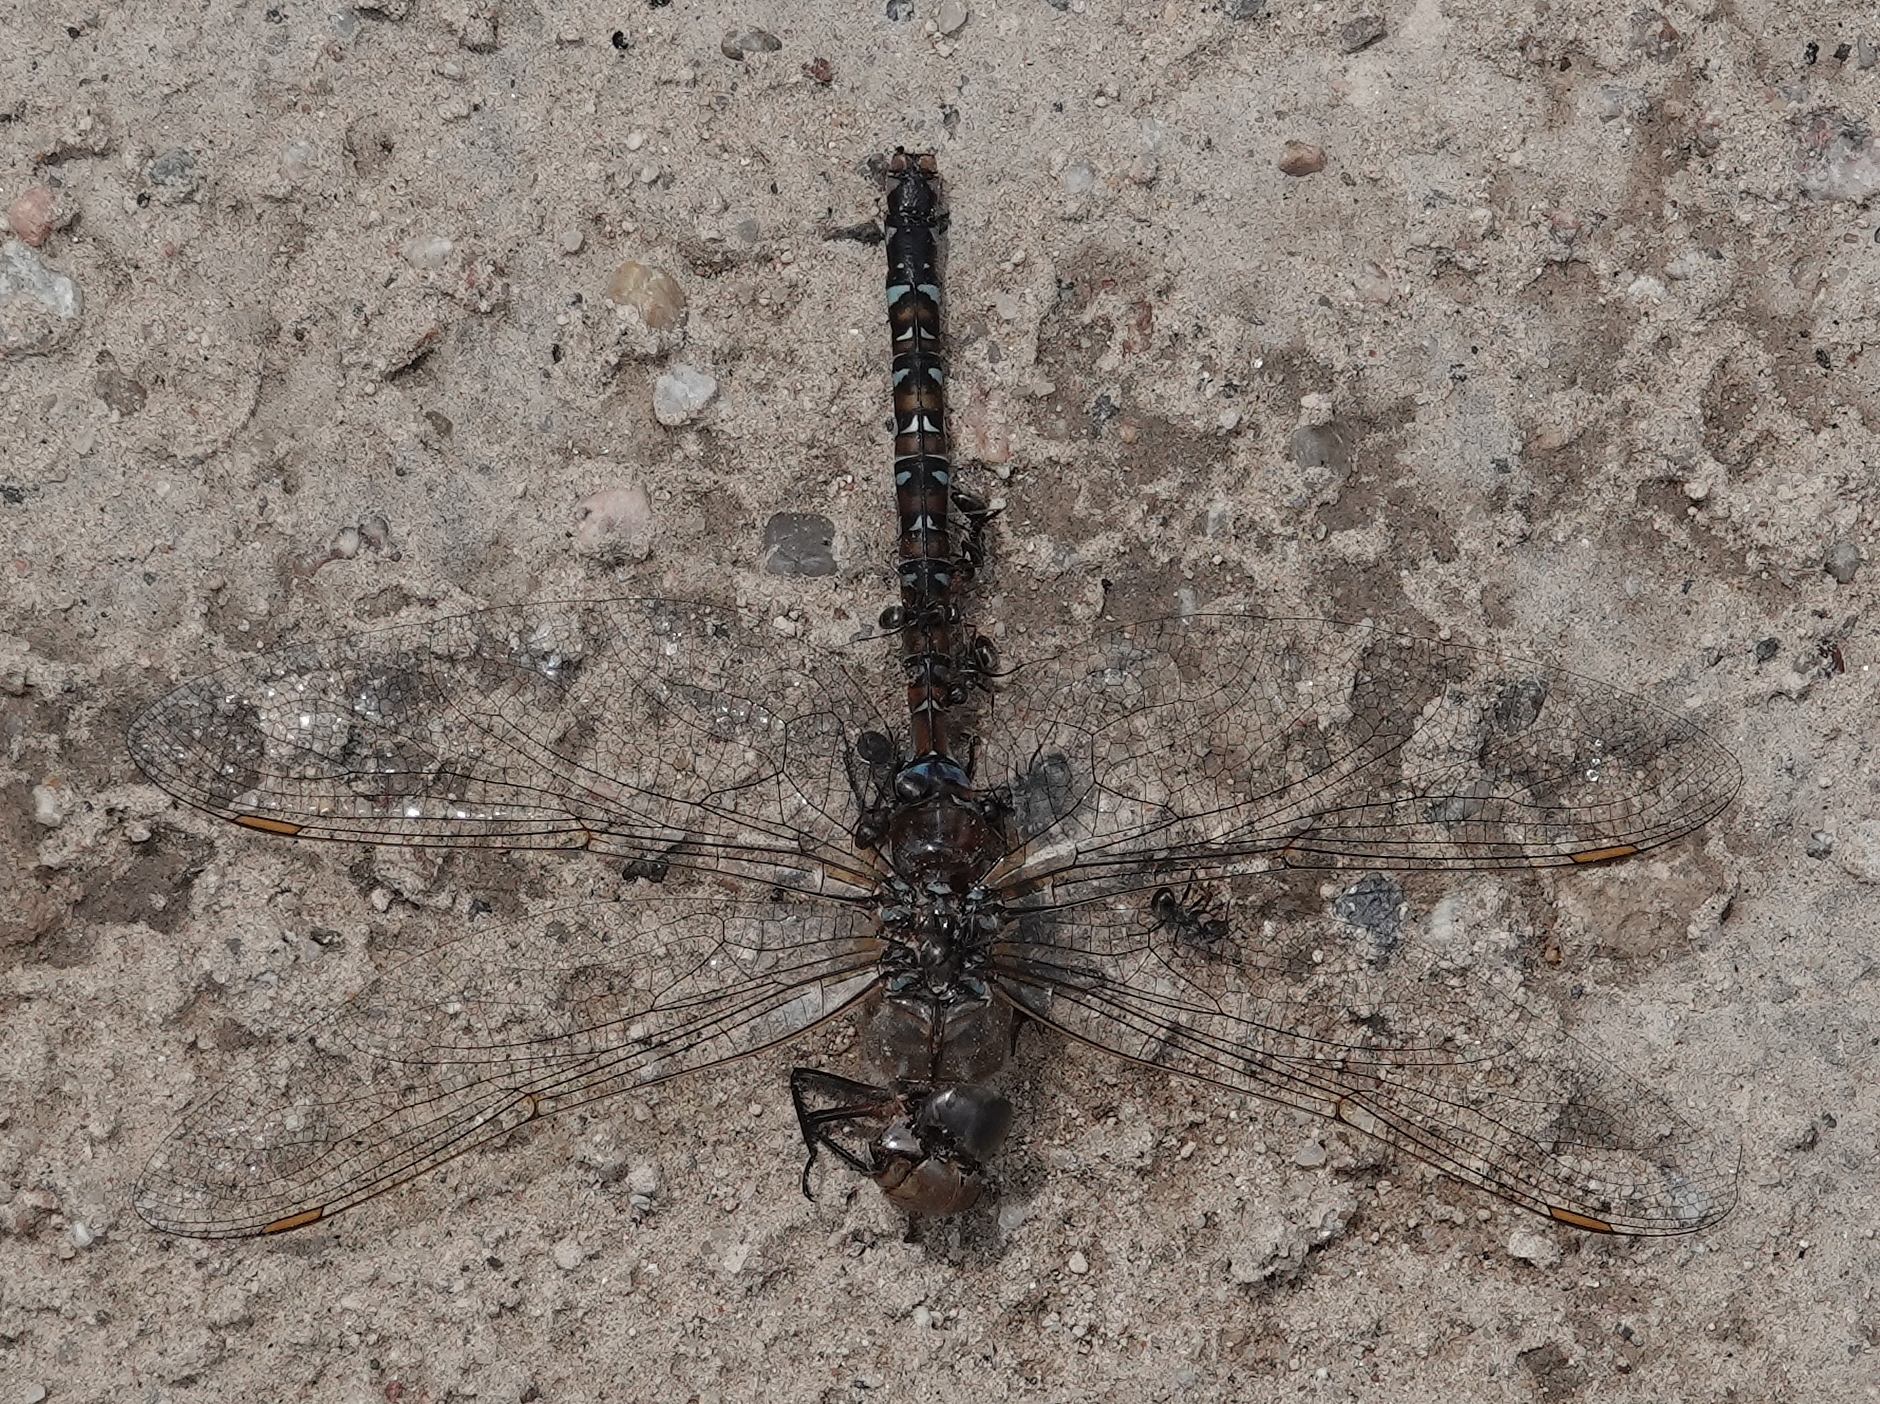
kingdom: Animalia
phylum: Arthropoda
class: Insecta
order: Odonata
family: Aeshnidae
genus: Aeshna
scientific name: Aeshna umbrosa
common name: Shadow darner
